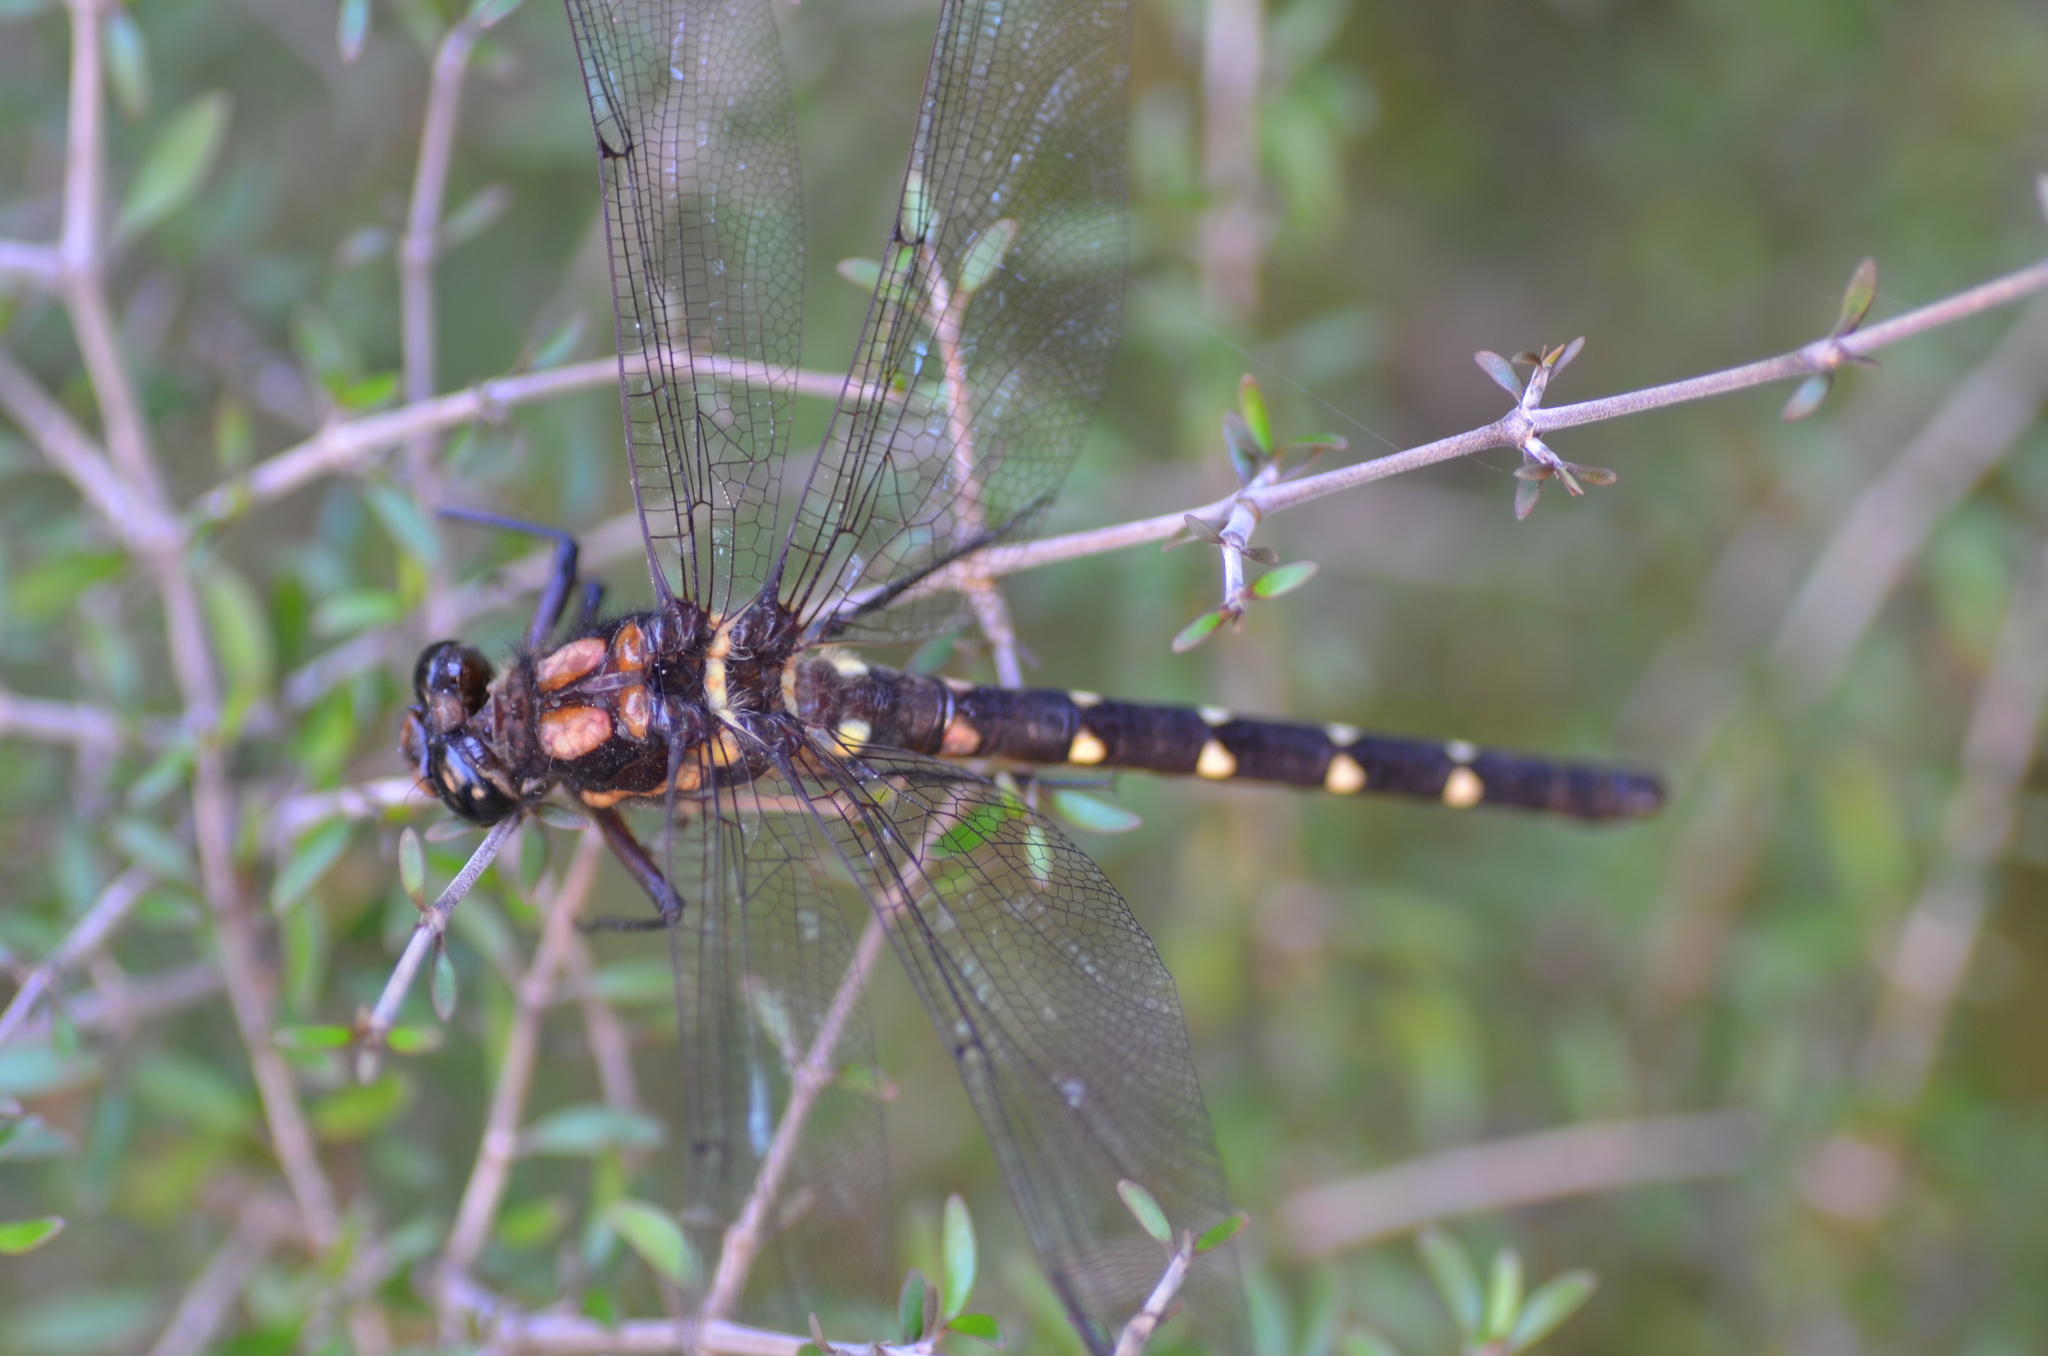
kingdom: Animalia
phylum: Arthropoda
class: Insecta
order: Odonata
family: Petaluridae
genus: Uropetala
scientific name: Uropetala carovei
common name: Bush giant dragonfly
